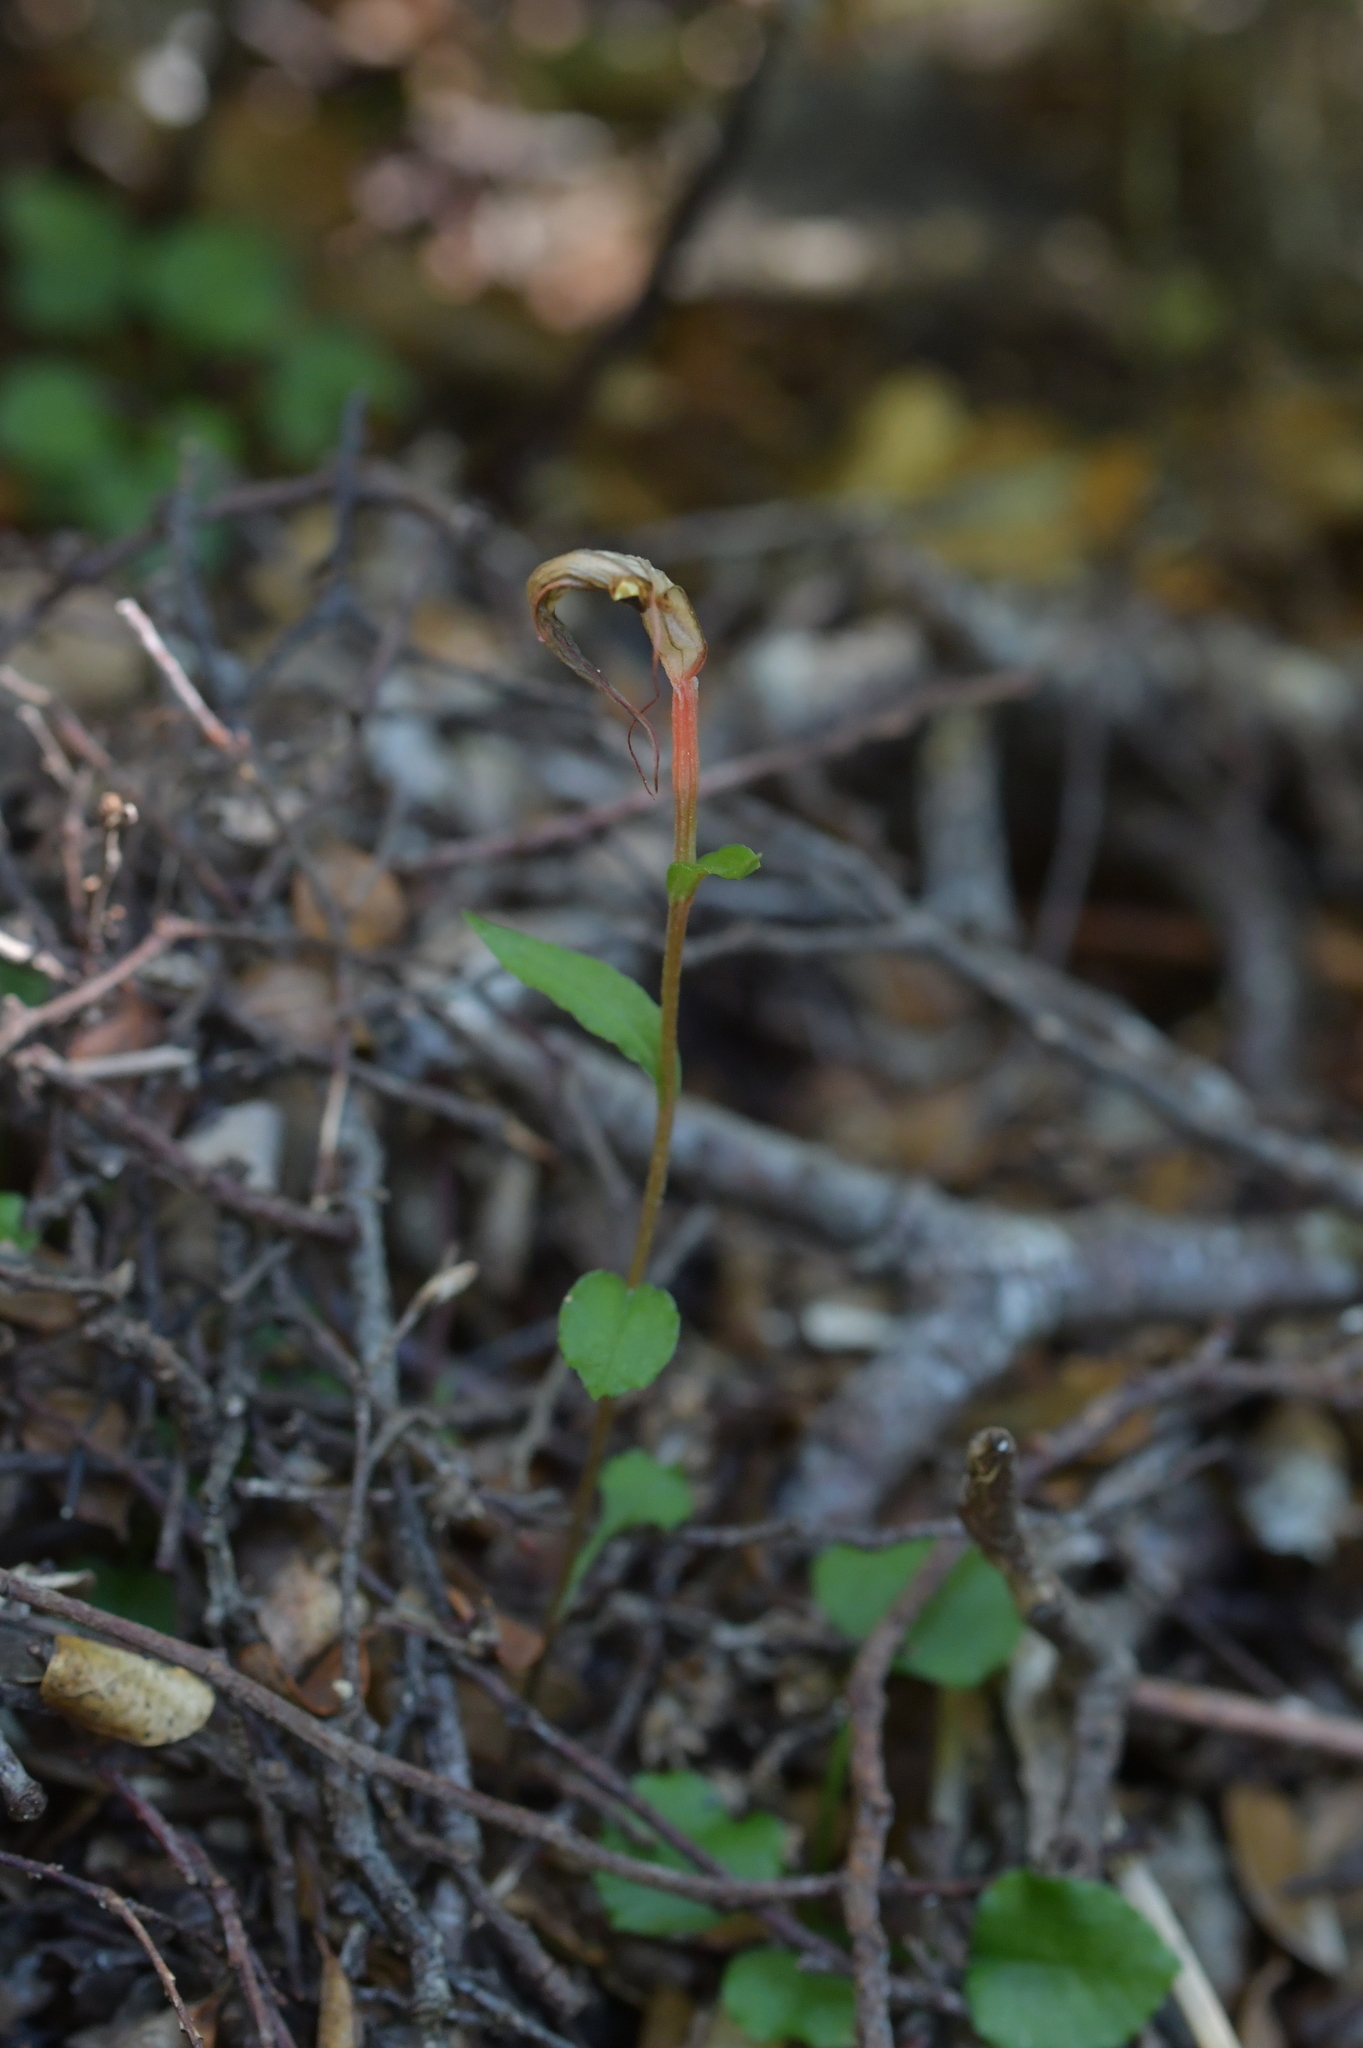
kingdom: Plantae
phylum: Tracheophyta
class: Liliopsida
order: Asparagales
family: Orchidaceae
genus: Pterostylis
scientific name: Pterostylis alobula
